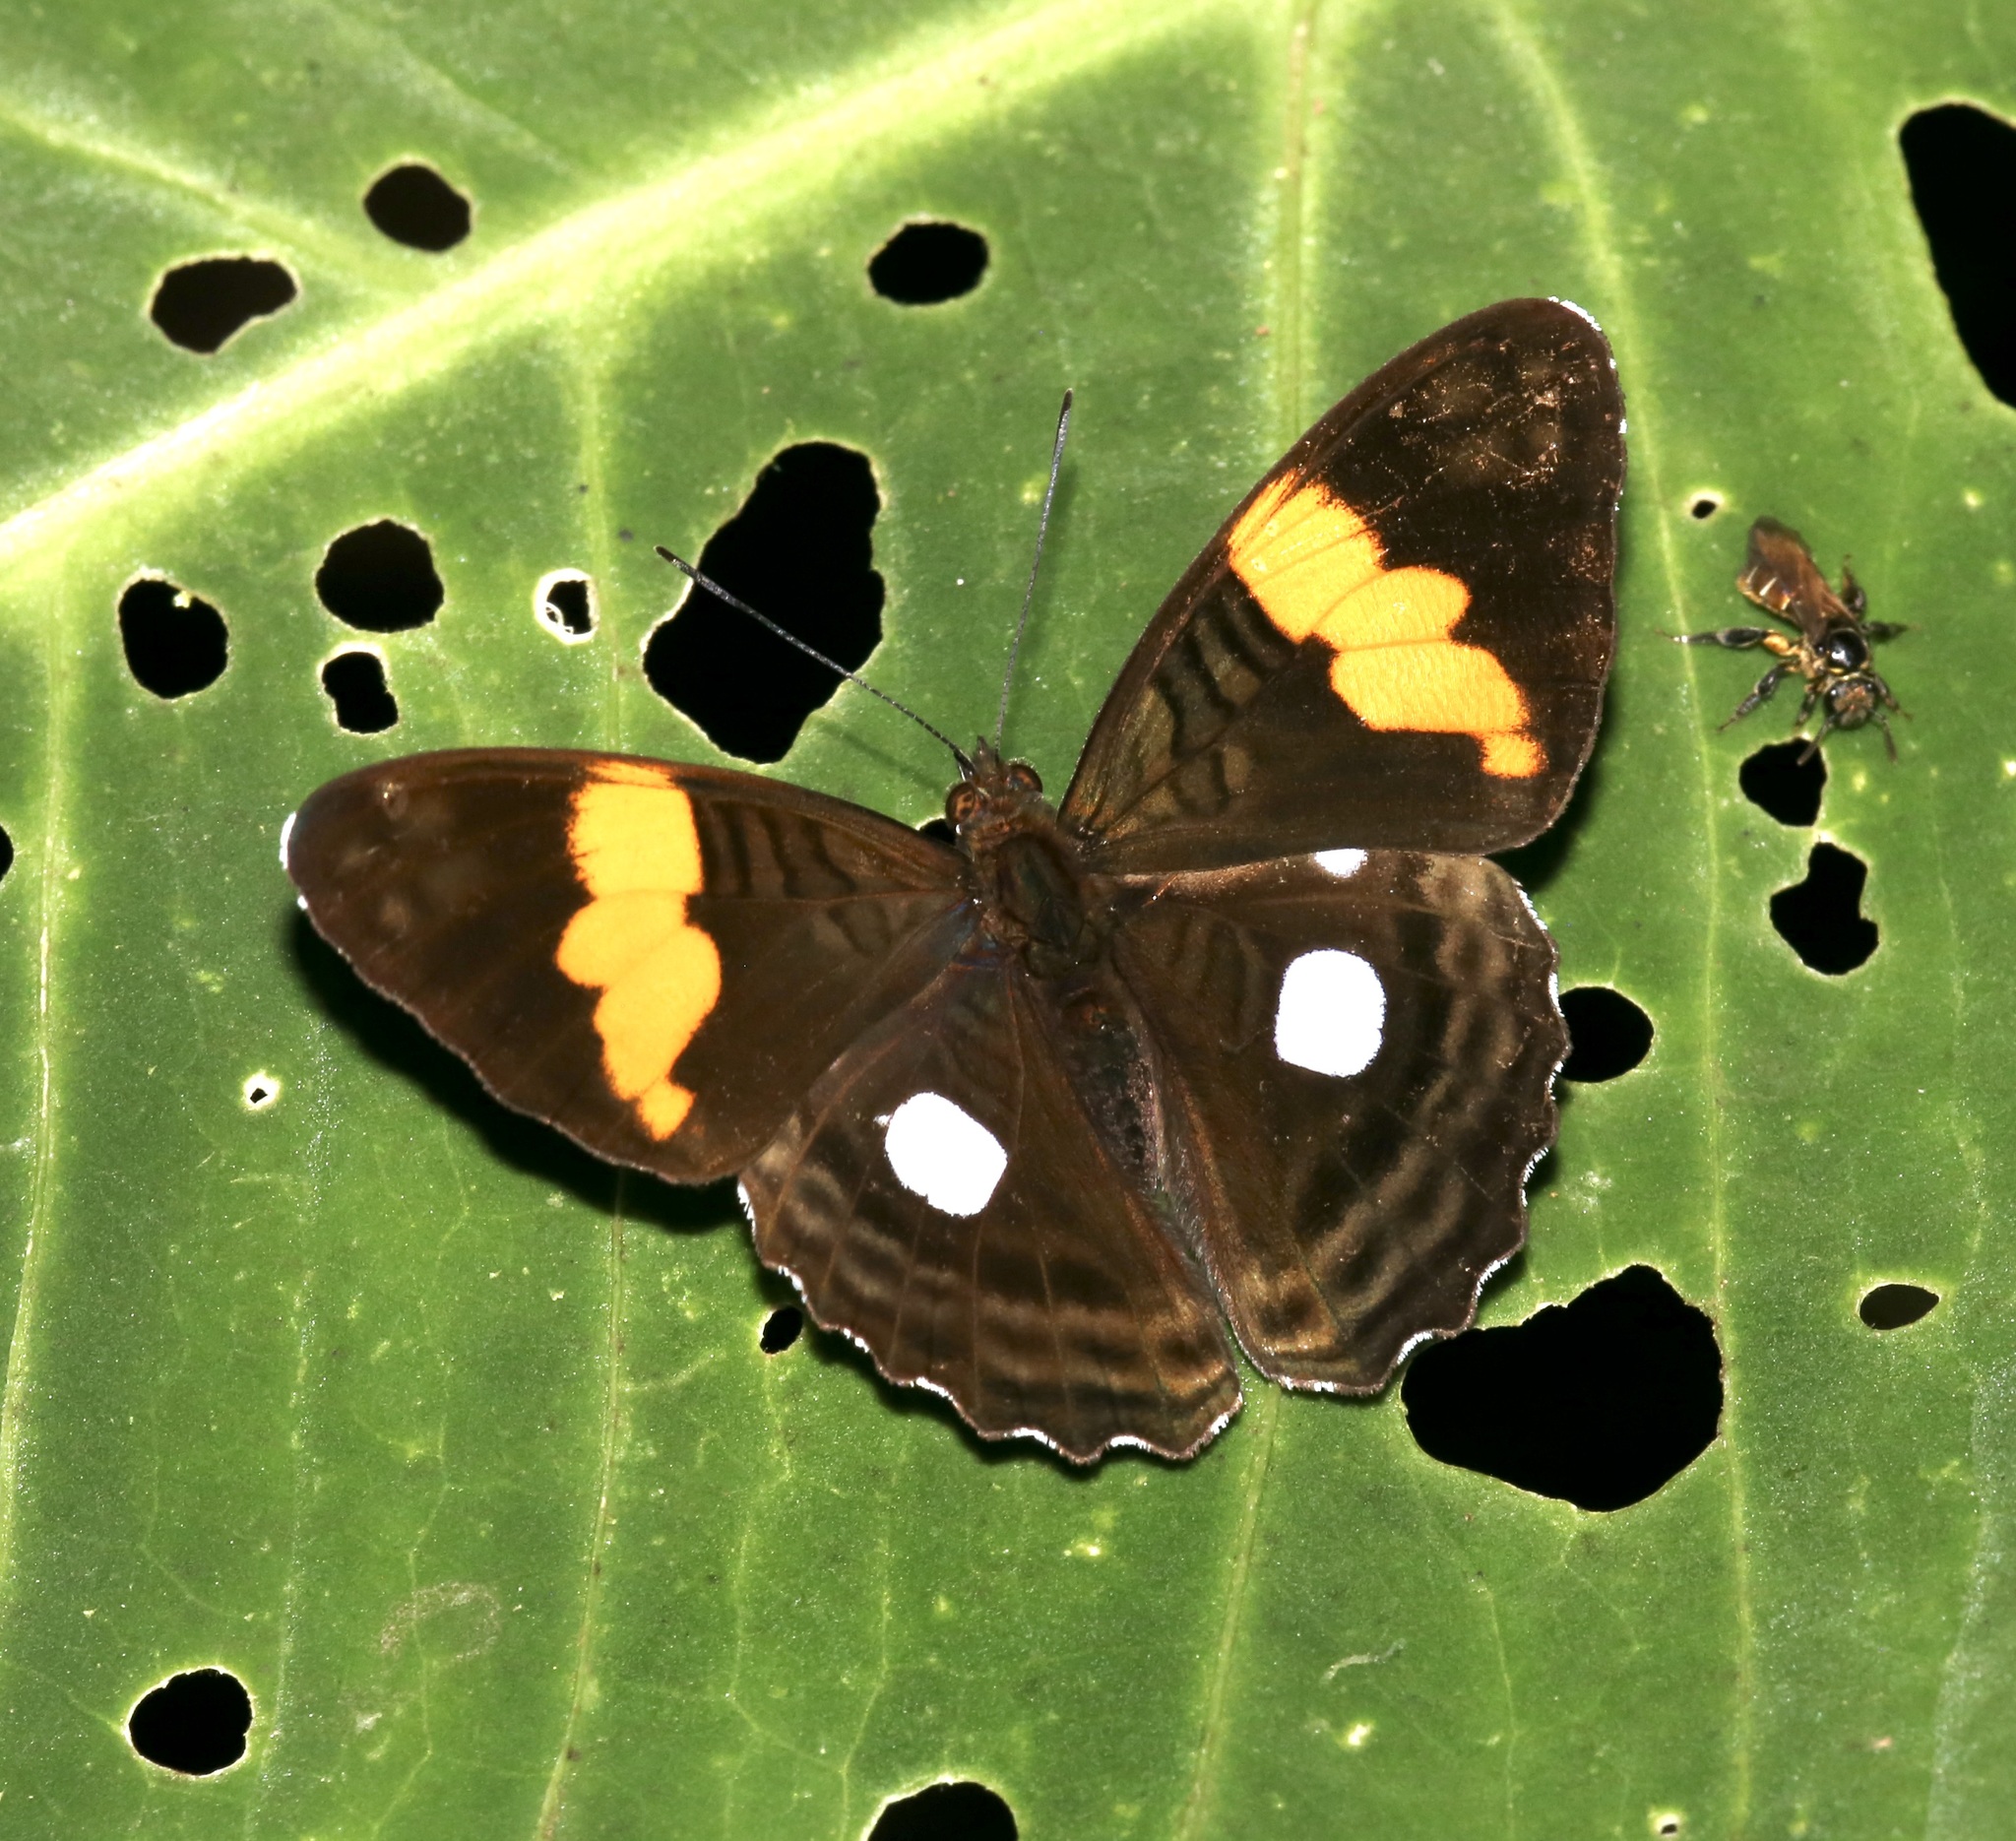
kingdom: Animalia
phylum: Arthropoda
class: Insecta
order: Lepidoptera
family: Nymphalidae
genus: Limenitis
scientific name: Limenitis leucophthalma
